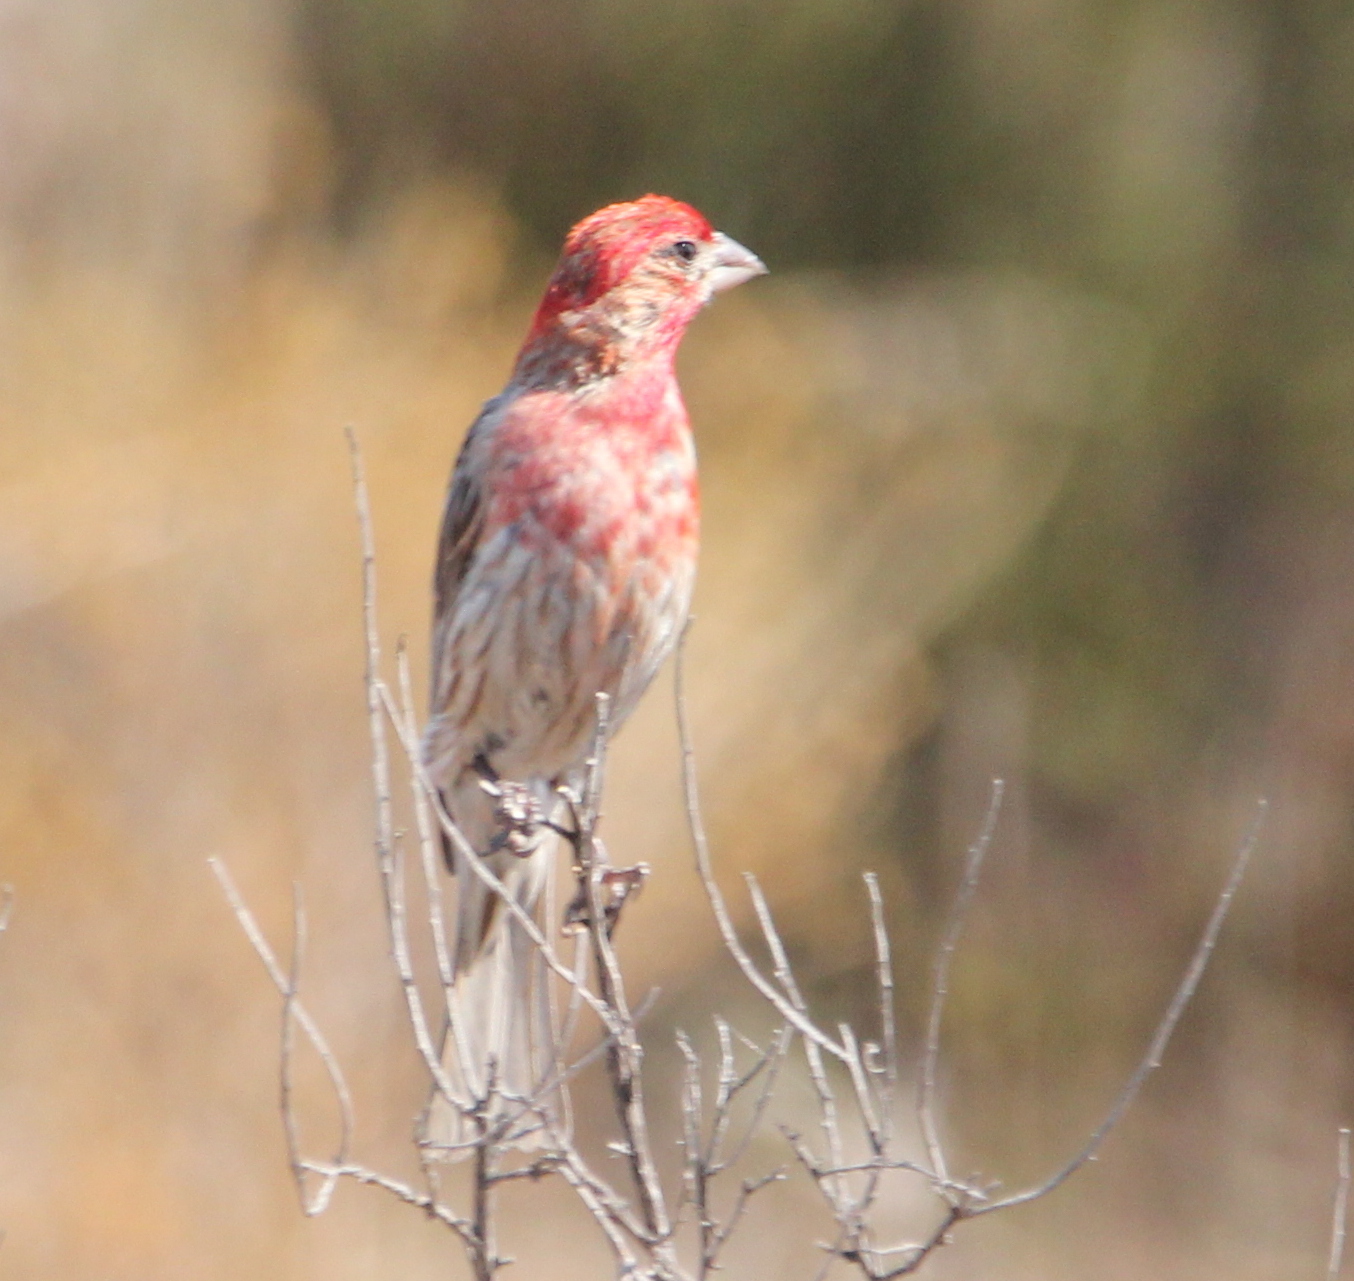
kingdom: Animalia
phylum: Chordata
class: Aves
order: Passeriformes
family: Fringillidae
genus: Haemorhous
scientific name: Haemorhous mexicanus
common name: House finch
